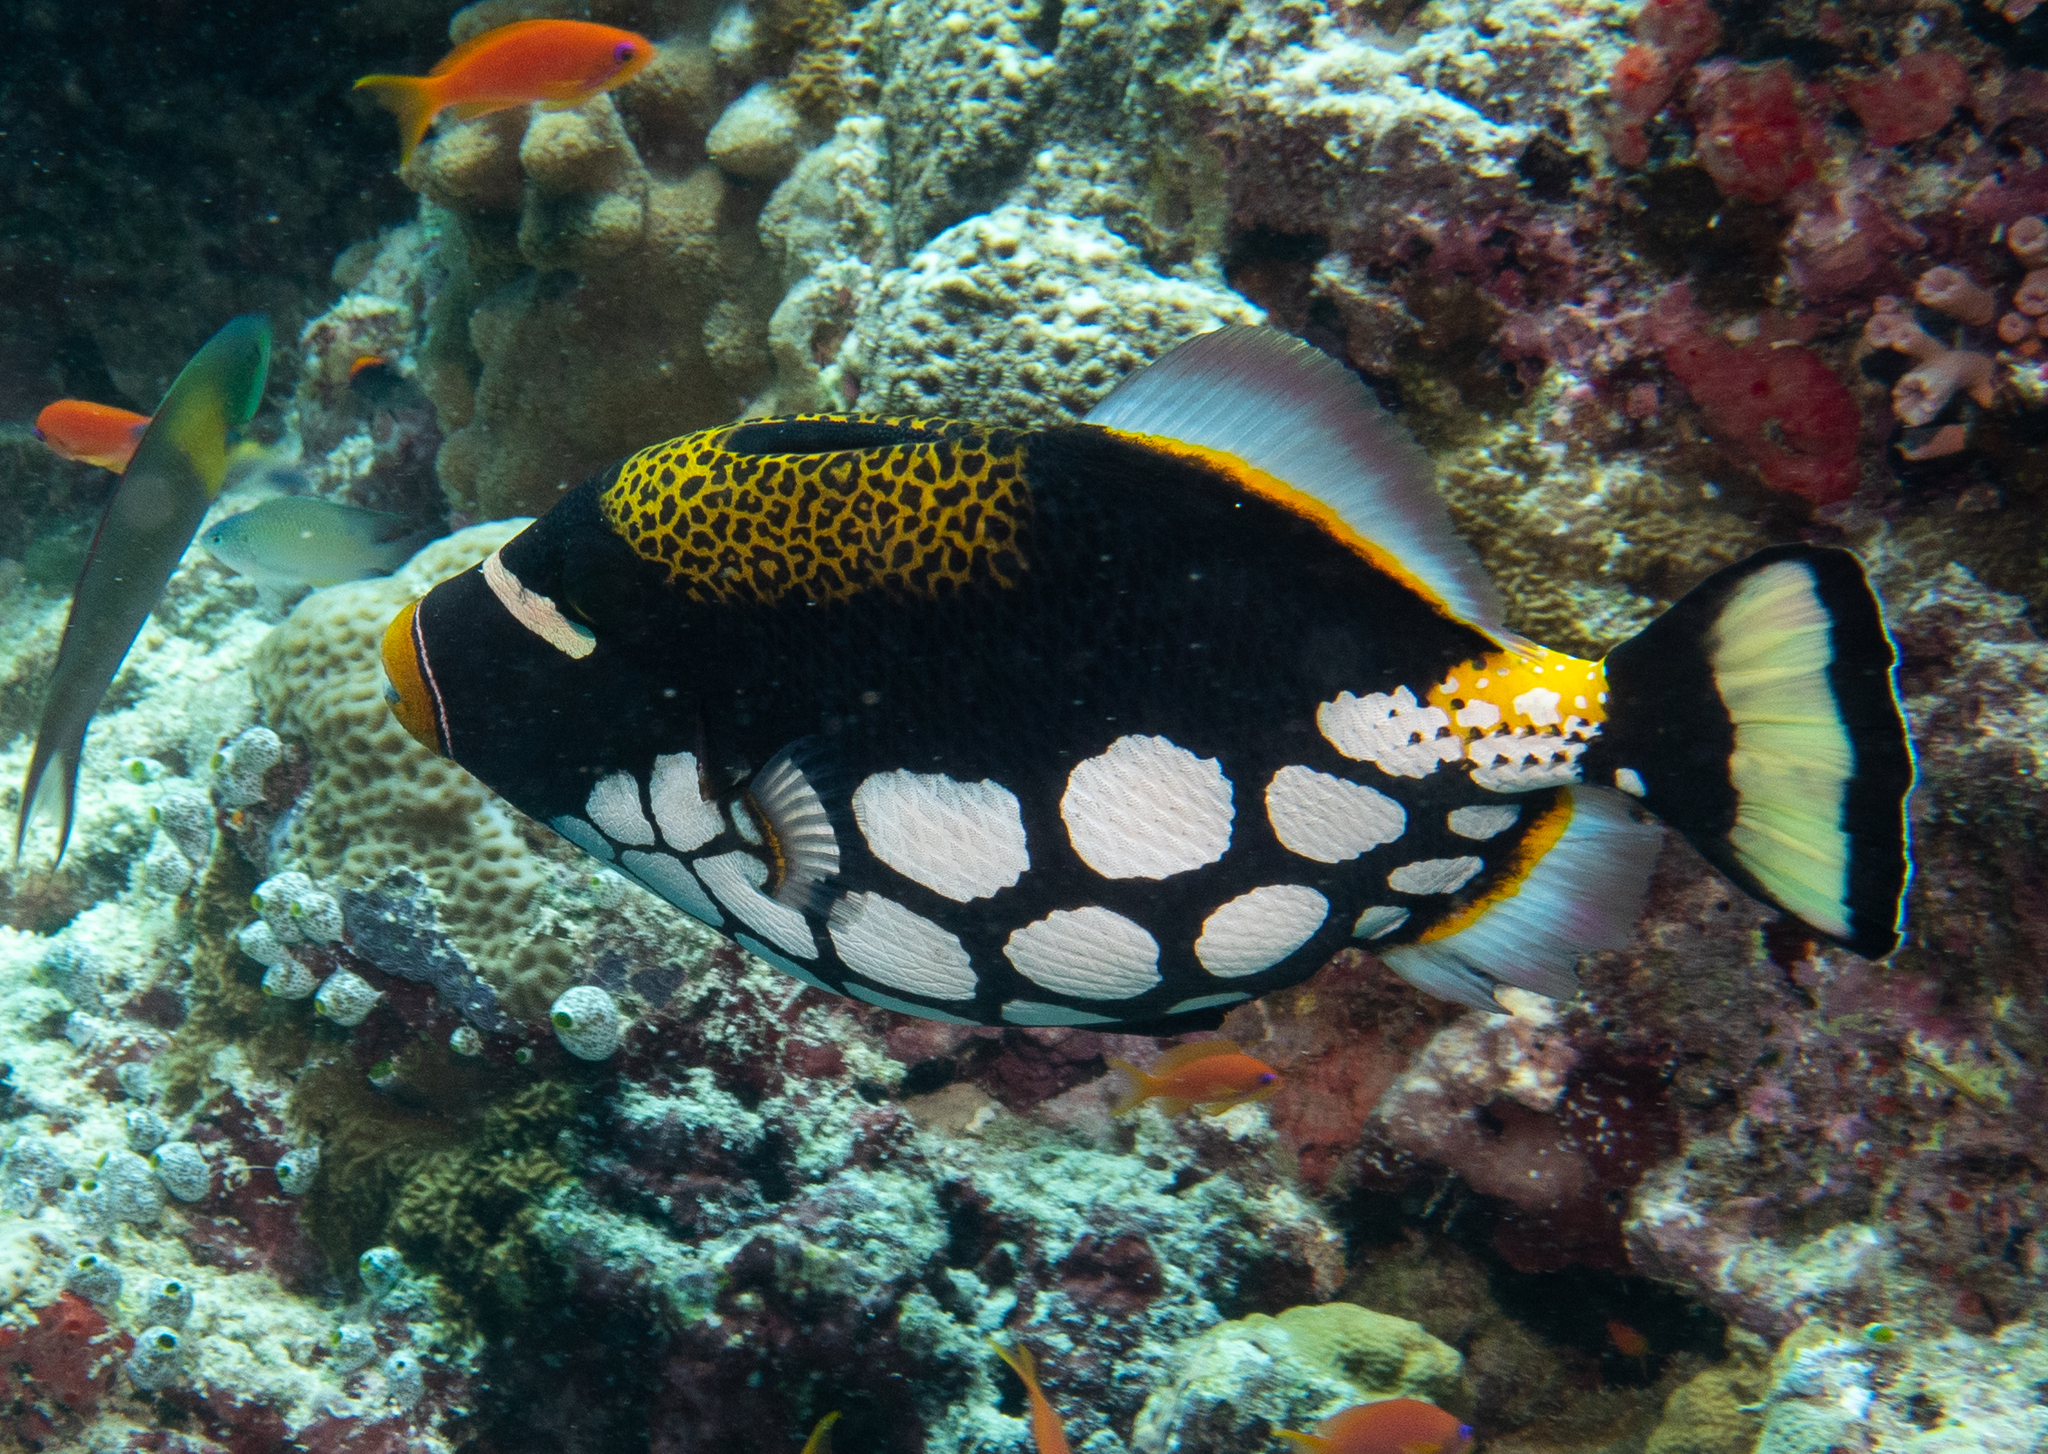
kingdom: Animalia
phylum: Chordata
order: Tetraodontiformes
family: Balistidae
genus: Balistoides
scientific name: Balistoides conspicillum
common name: Clown triggerfish
